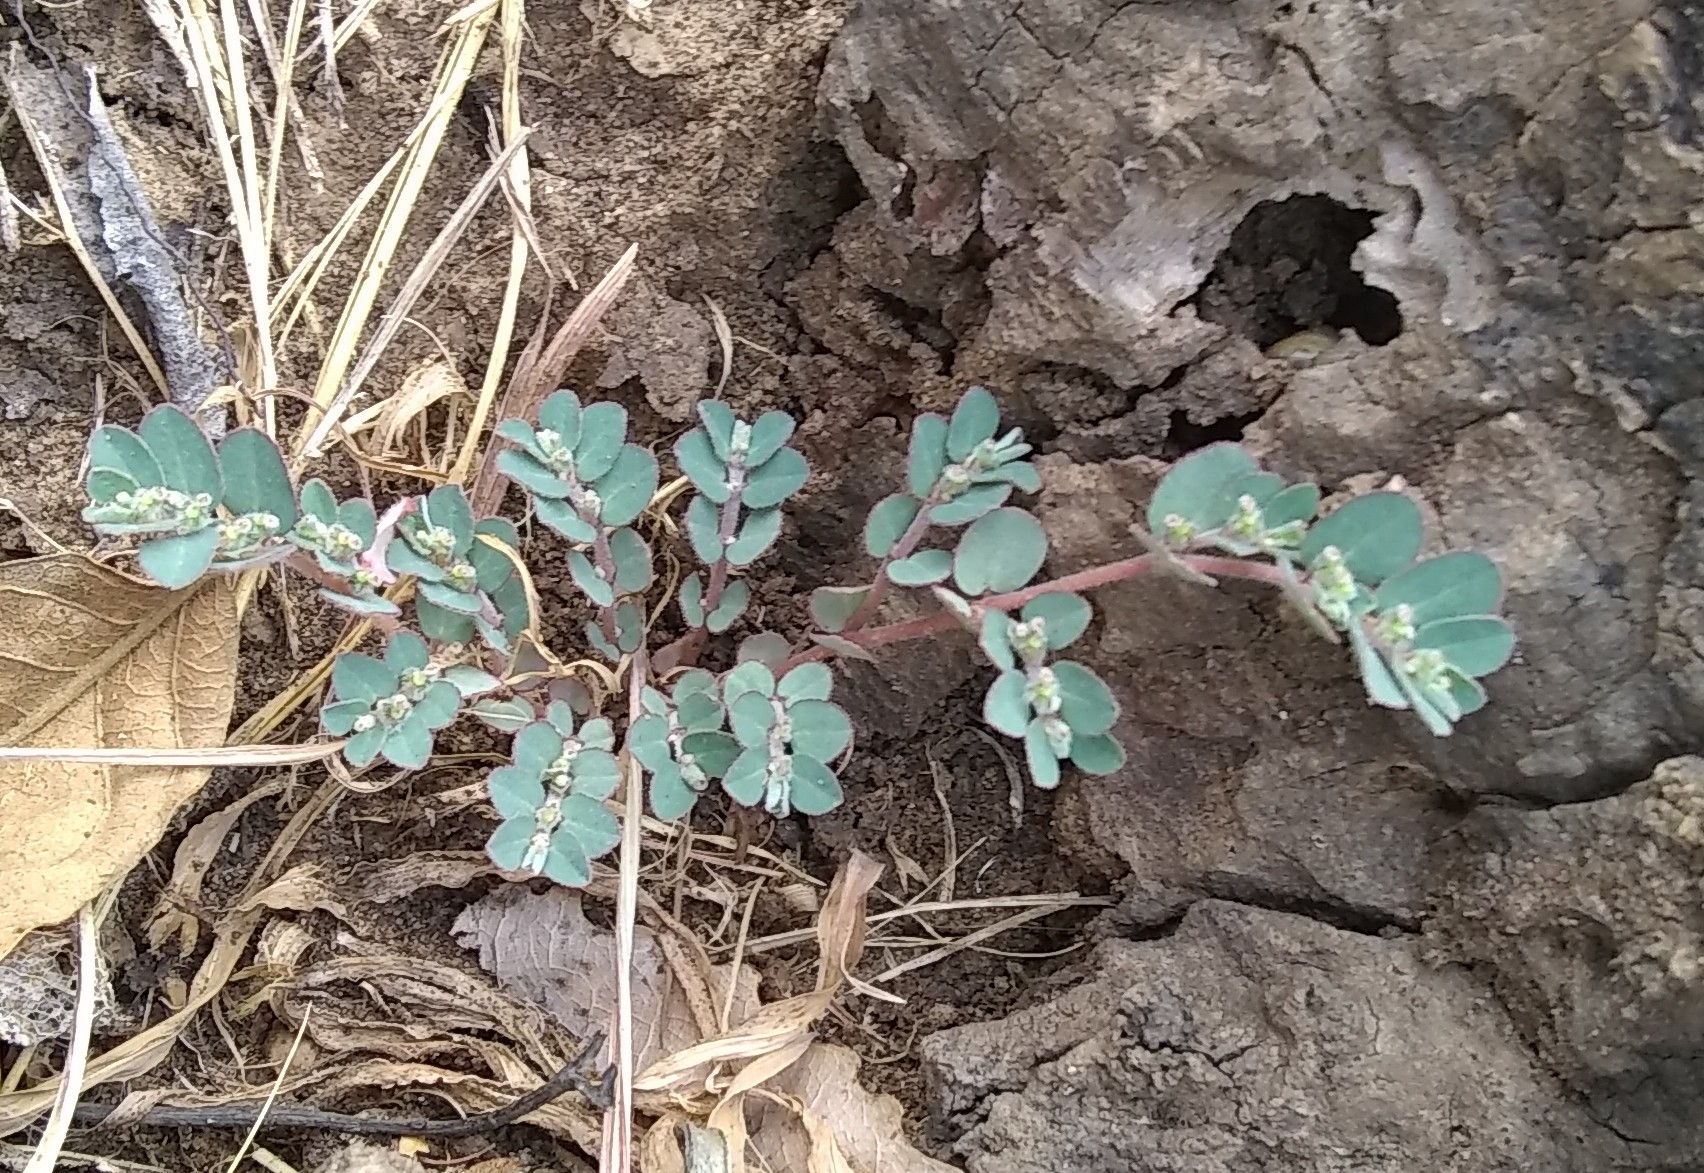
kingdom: Plantae
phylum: Tracheophyta
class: Magnoliopsida
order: Malpighiales
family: Euphorbiaceae
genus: Euphorbia
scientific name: Euphorbia prostrata
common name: Prostrate sandmat
